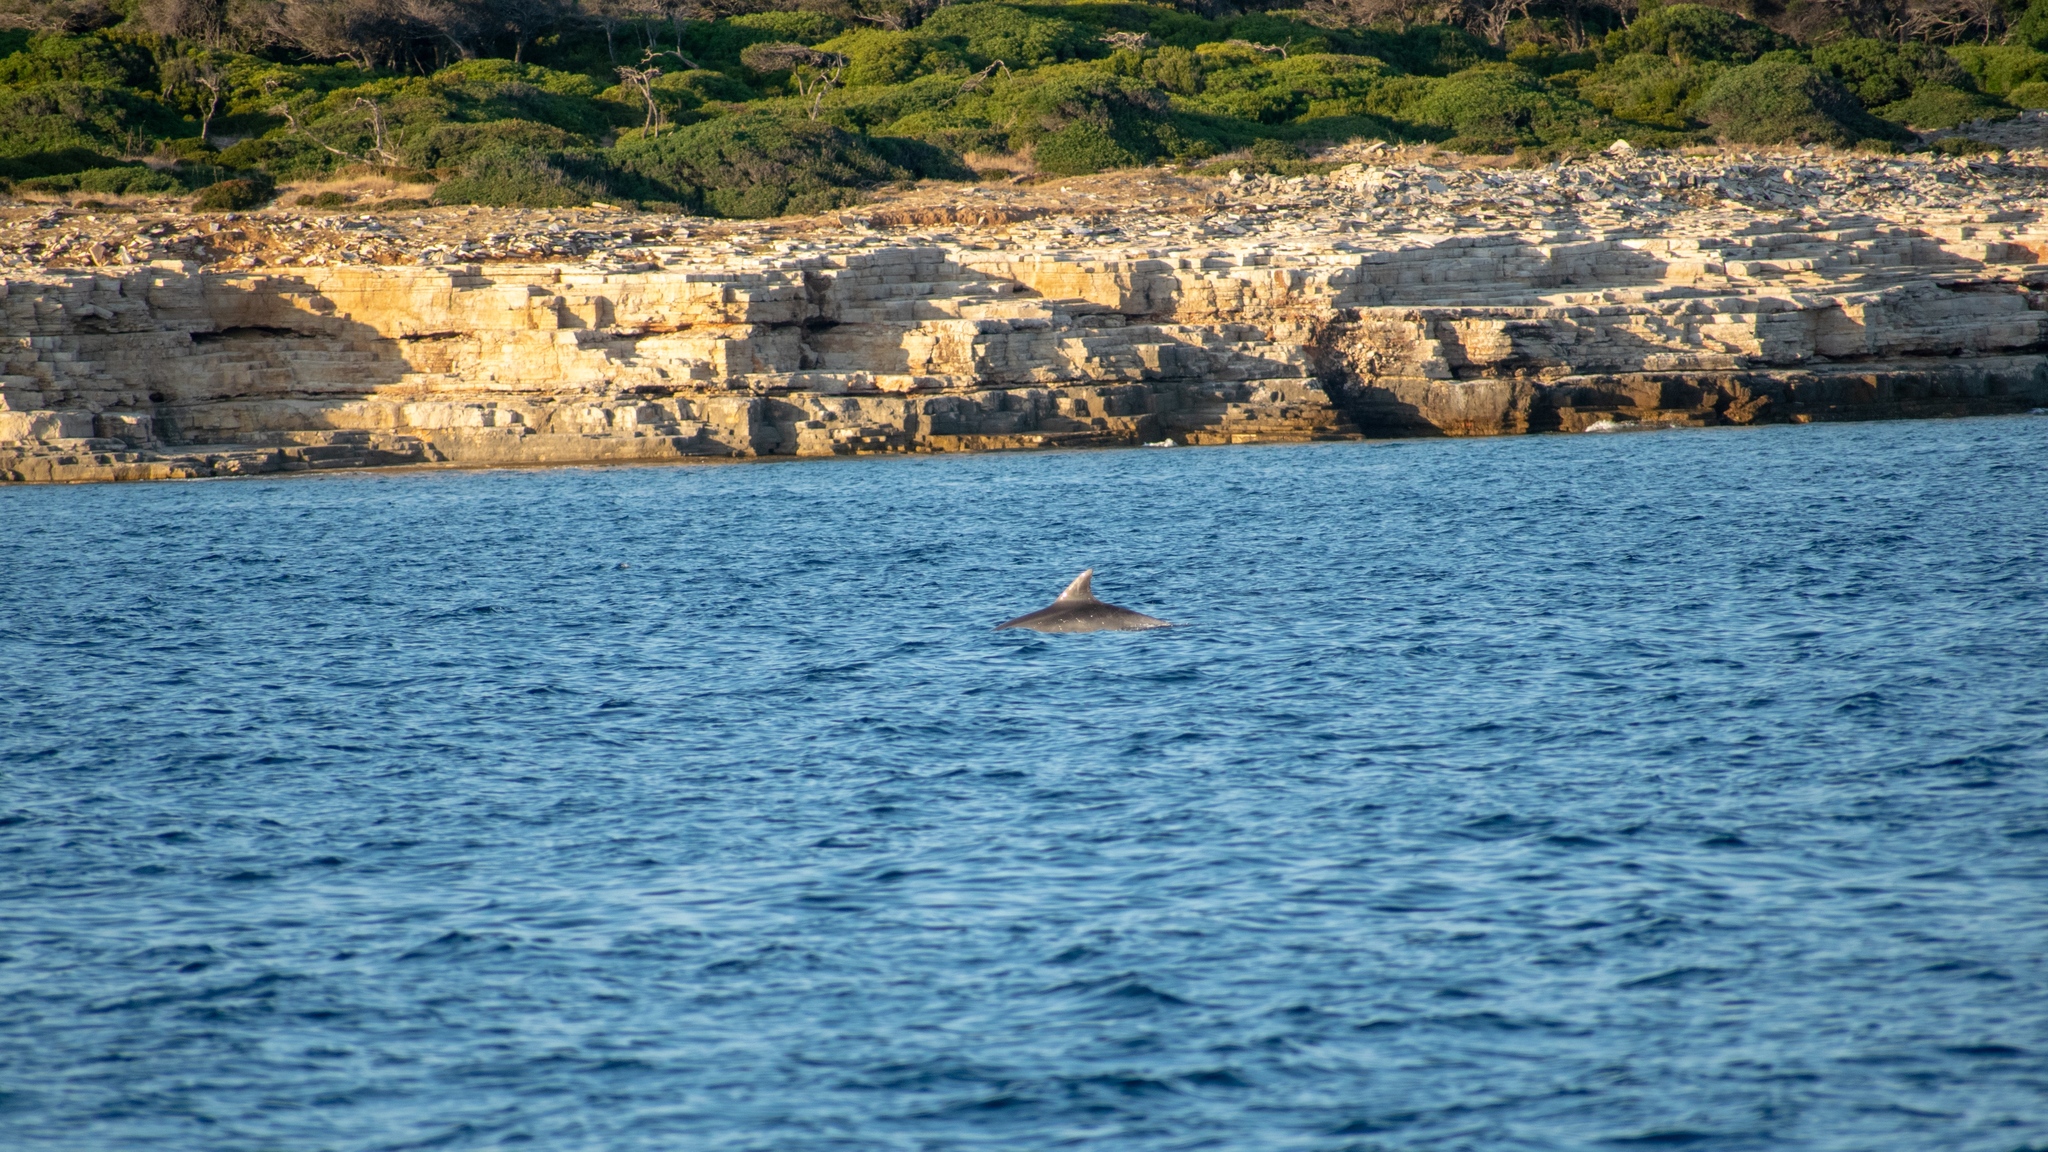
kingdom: Animalia
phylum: Chordata
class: Mammalia
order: Cetacea
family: Delphinidae
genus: Tursiops
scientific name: Tursiops truncatus
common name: Bottlenose dolphin
